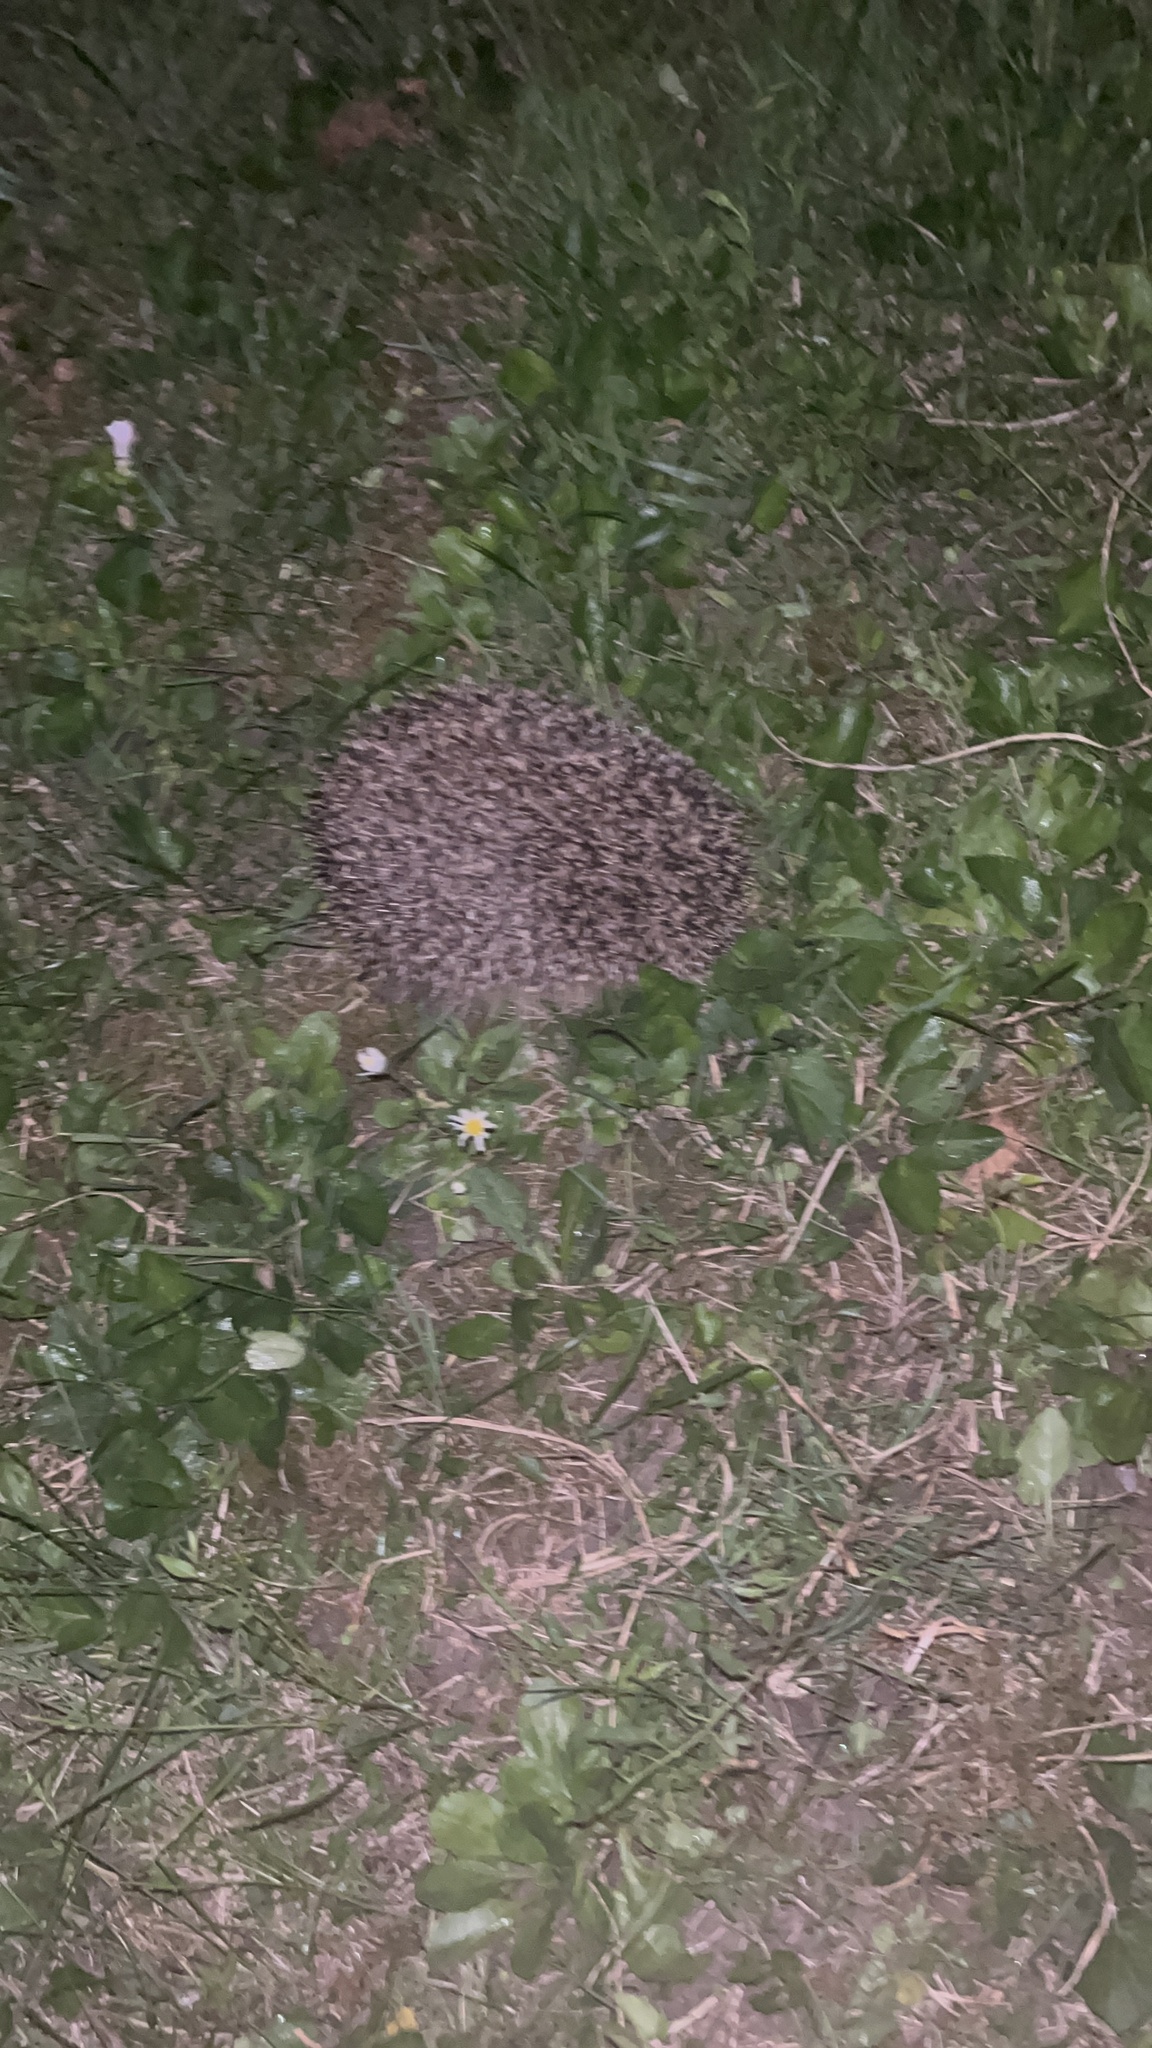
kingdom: Animalia
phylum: Chordata
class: Mammalia
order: Erinaceomorpha
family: Erinaceidae
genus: Erinaceus
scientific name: Erinaceus europaeus
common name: West european hedgehog
